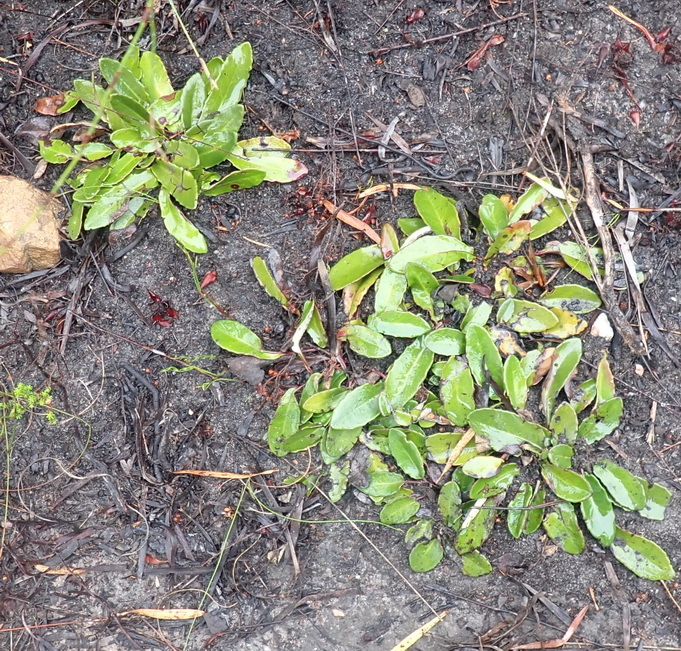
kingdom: Plantae
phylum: Tracheophyta
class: Magnoliopsida
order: Asterales
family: Asteraceae
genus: Gerbera
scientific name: Gerbera serrata
